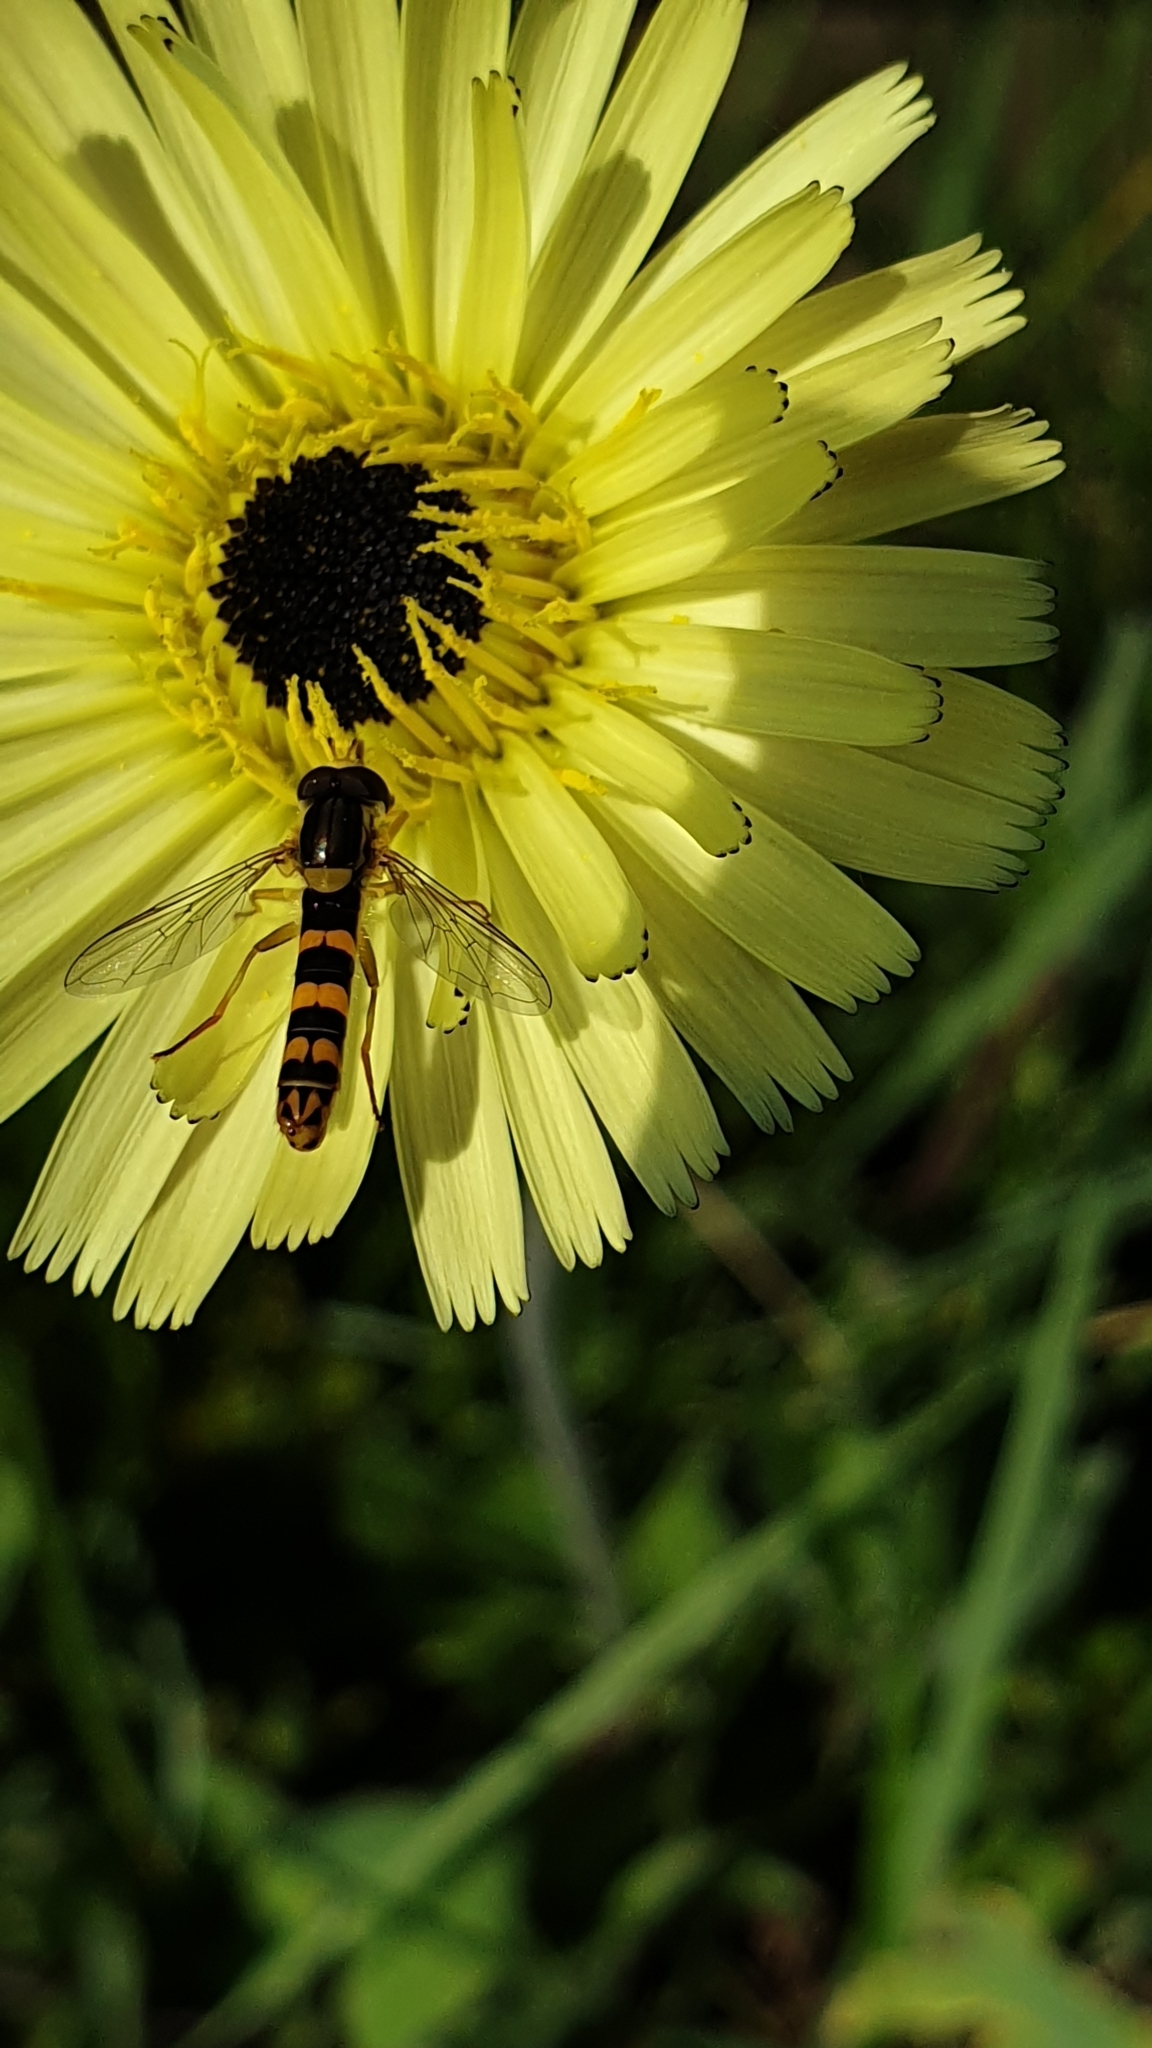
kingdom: Animalia
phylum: Arthropoda
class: Insecta
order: Diptera
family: Syrphidae
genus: Sphaerophoria
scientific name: Sphaerophoria scripta
